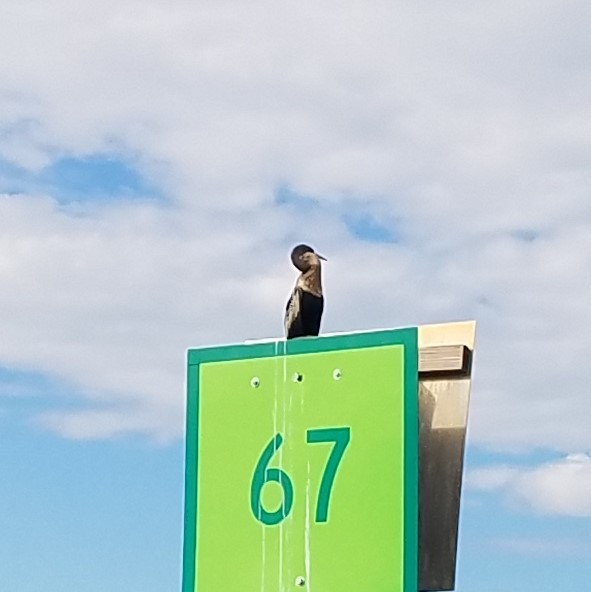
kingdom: Animalia
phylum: Chordata
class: Aves
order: Suliformes
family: Anhingidae
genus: Anhinga
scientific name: Anhinga anhinga
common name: Anhinga
